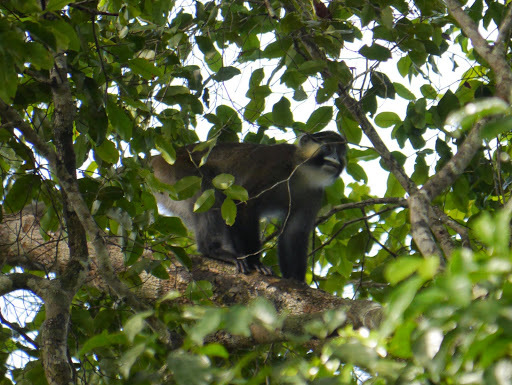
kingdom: Animalia
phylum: Chordata
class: Mammalia
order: Primates
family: Cercopithecidae
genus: Cercopithecus
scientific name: Cercopithecus cephus
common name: Moustached guenon
